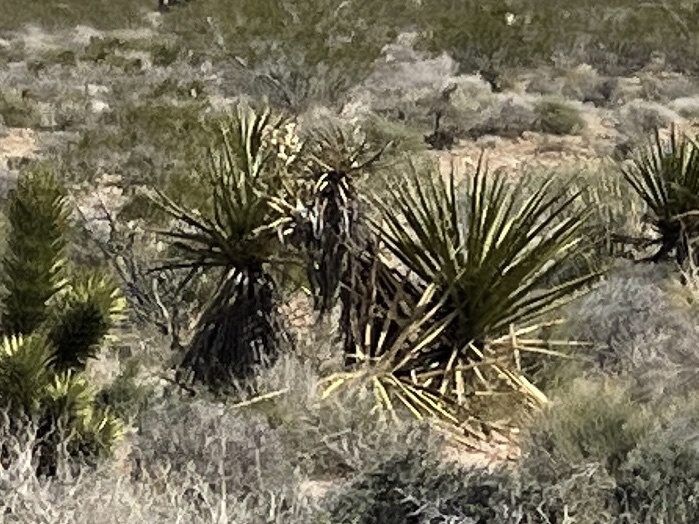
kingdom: Plantae
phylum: Tracheophyta
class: Liliopsida
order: Asparagales
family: Asparagaceae
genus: Yucca
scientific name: Yucca schidigera
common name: Mojave yucca
